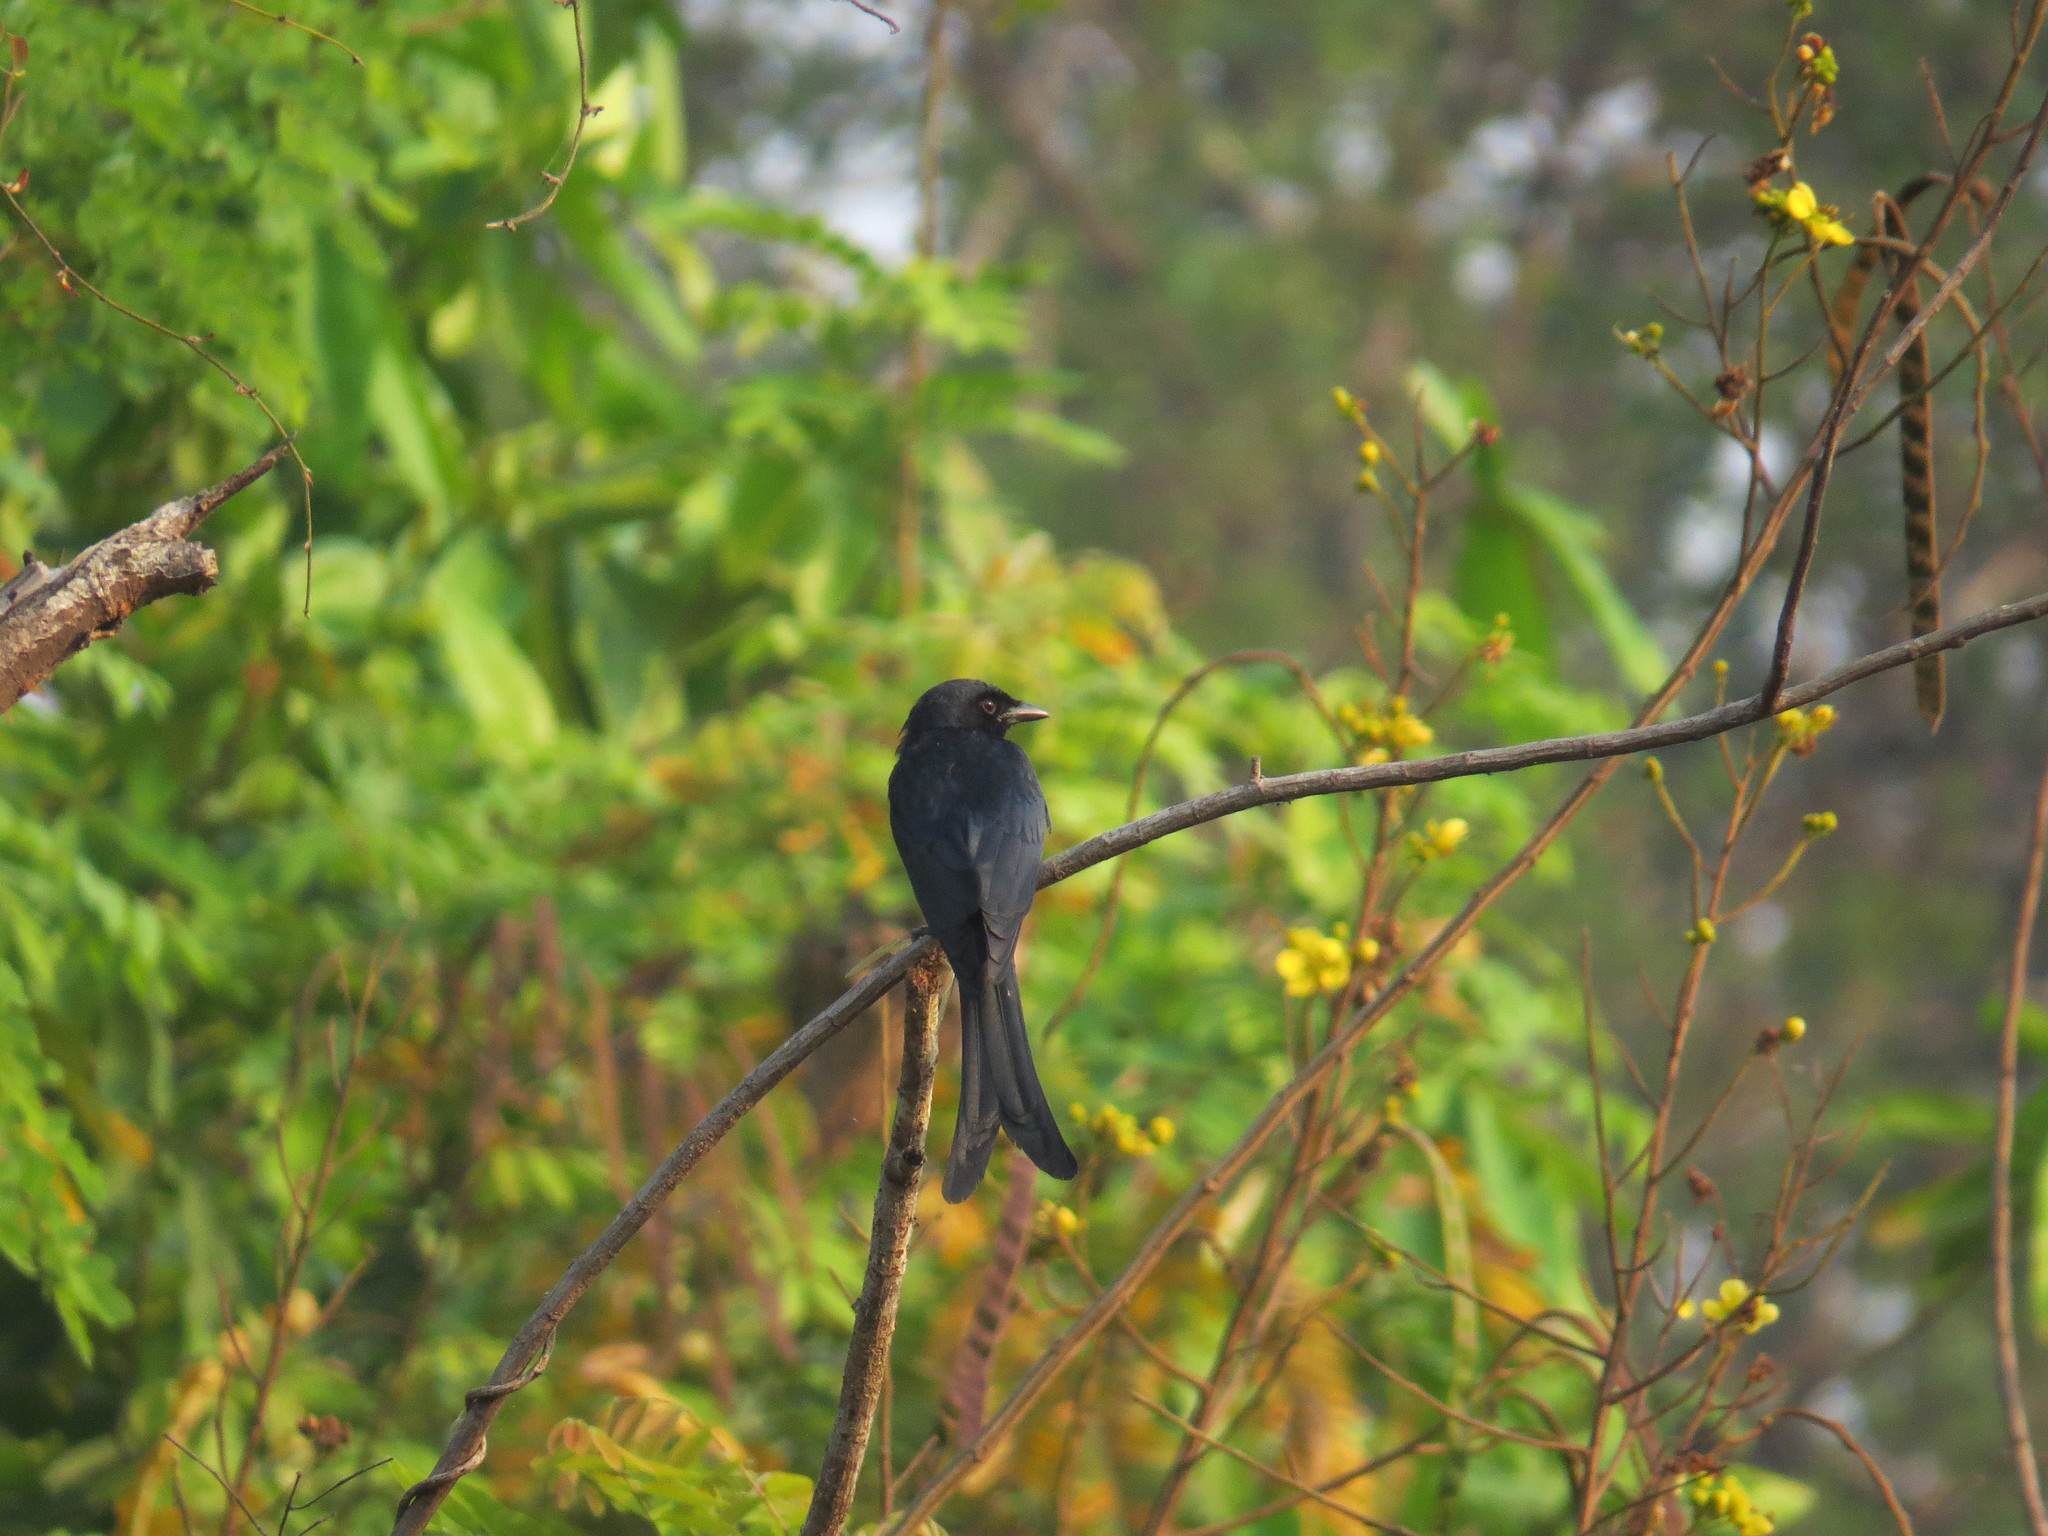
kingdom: Animalia
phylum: Chordata
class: Aves
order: Passeriformes
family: Dicruridae
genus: Dicrurus
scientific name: Dicrurus macrocercus
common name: Black drongo
